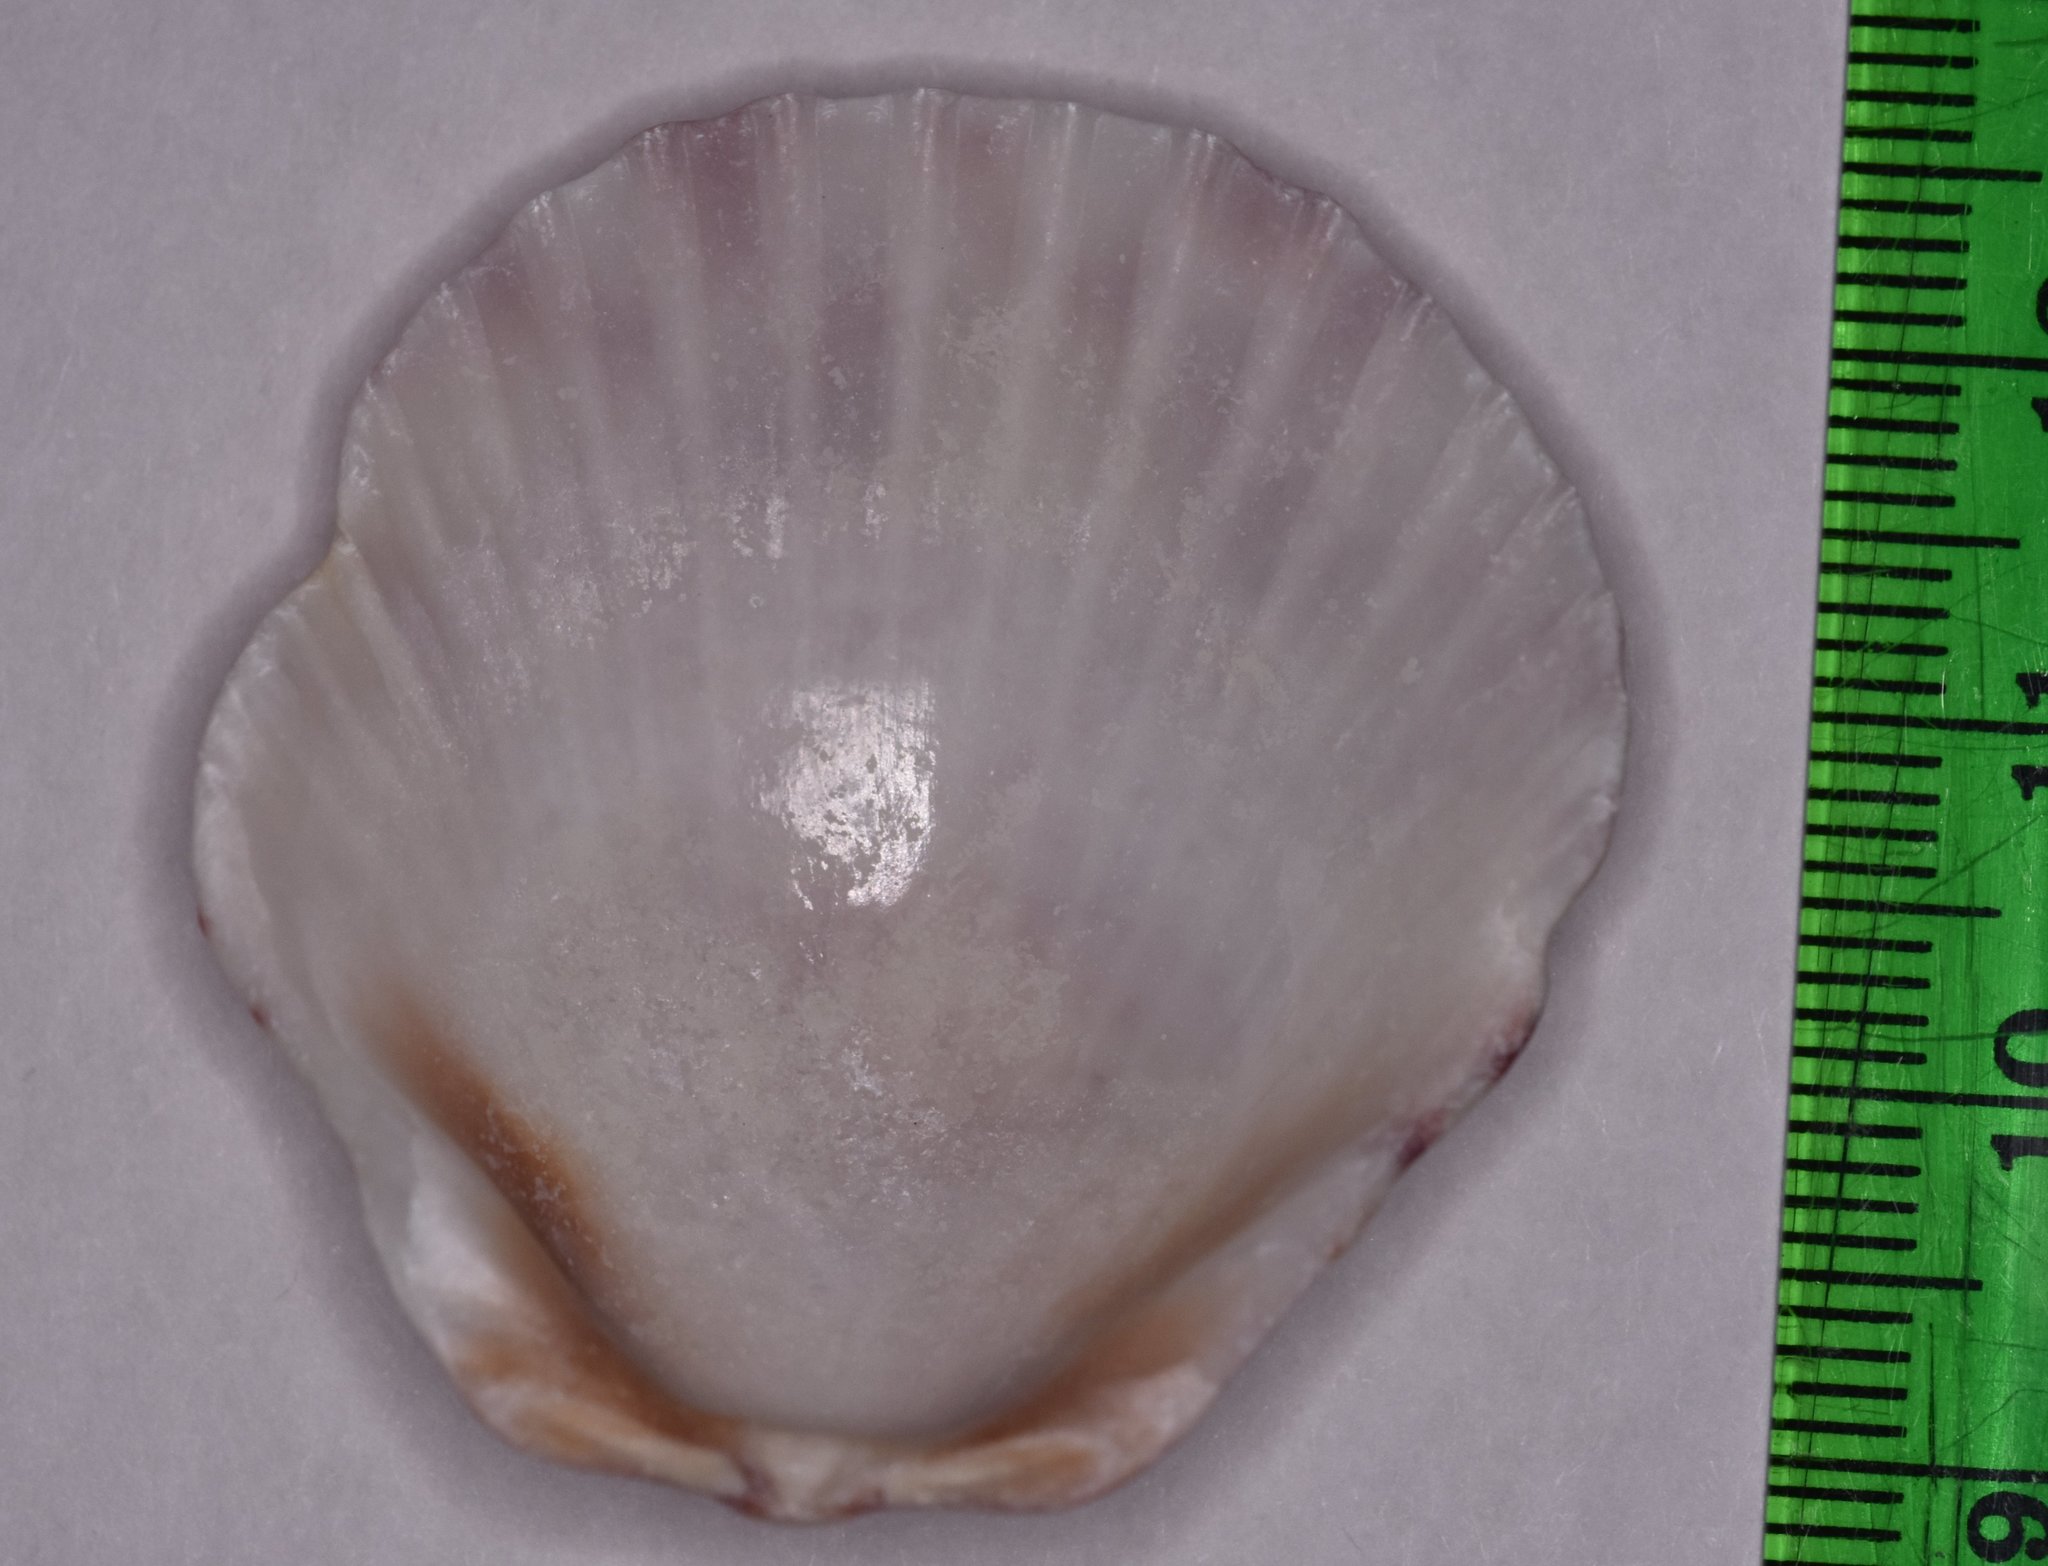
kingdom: Animalia
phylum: Mollusca
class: Bivalvia
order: Pectinida
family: Pectinidae
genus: Argopecten
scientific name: Argopecten gibbus
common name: Atlantic calico scallop
